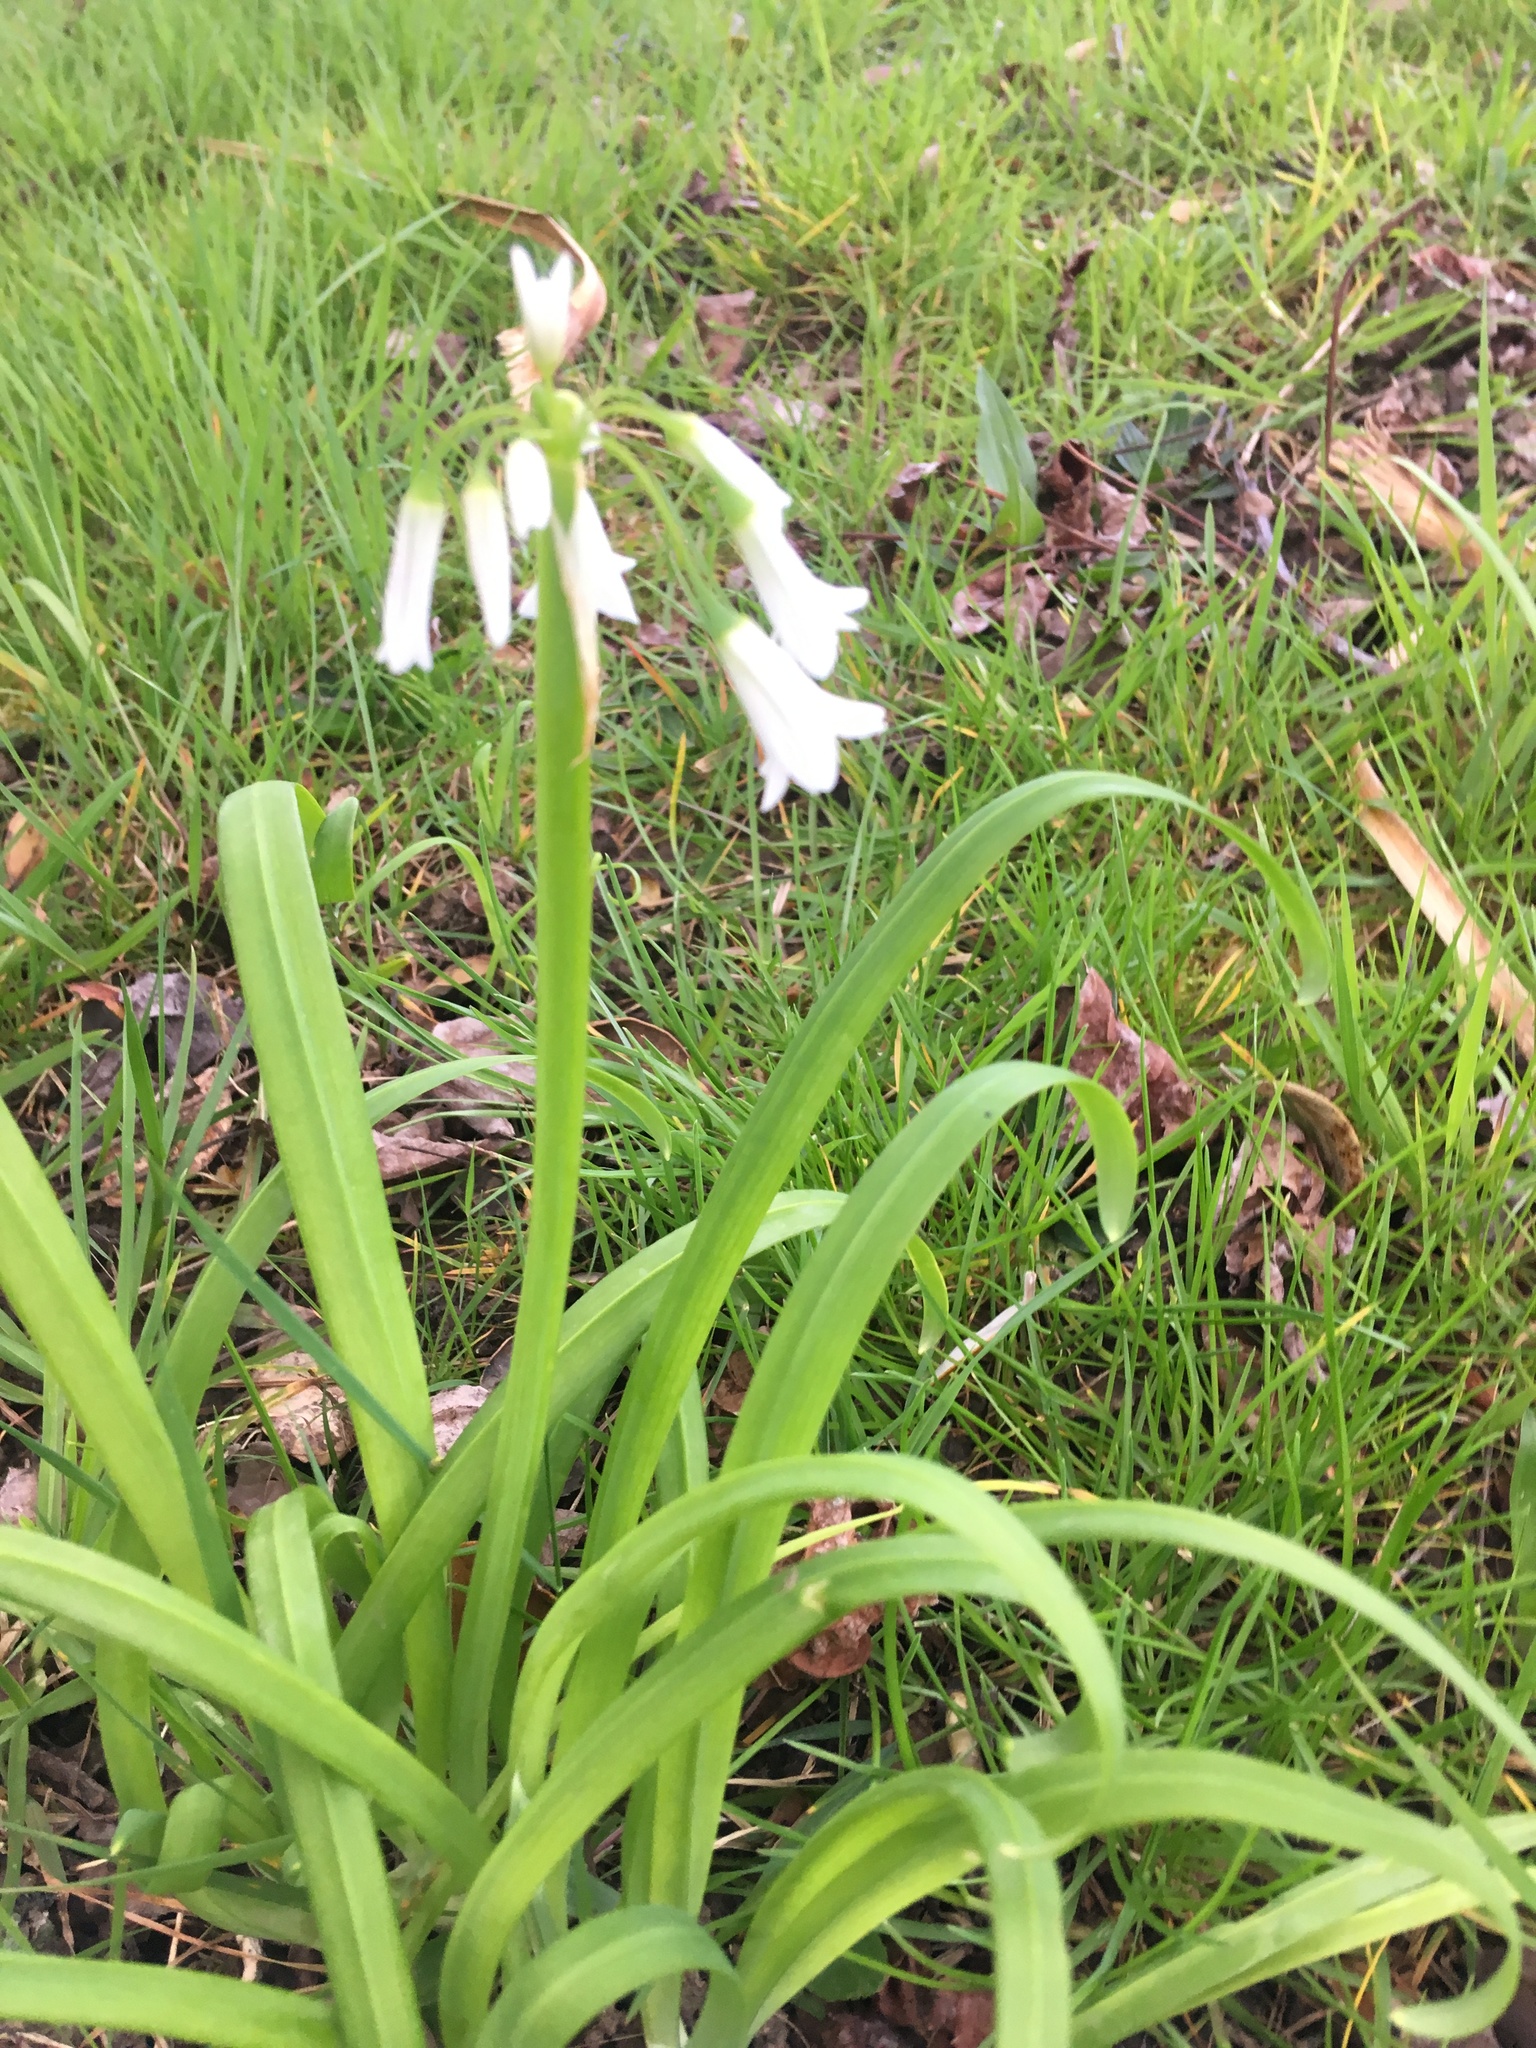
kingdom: Plantae
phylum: Tracheophyta
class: Liliopsida
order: Asparagales
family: Amaryllidaceae
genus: Allium
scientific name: Allium triquetrum
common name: Three-cornered garlic
